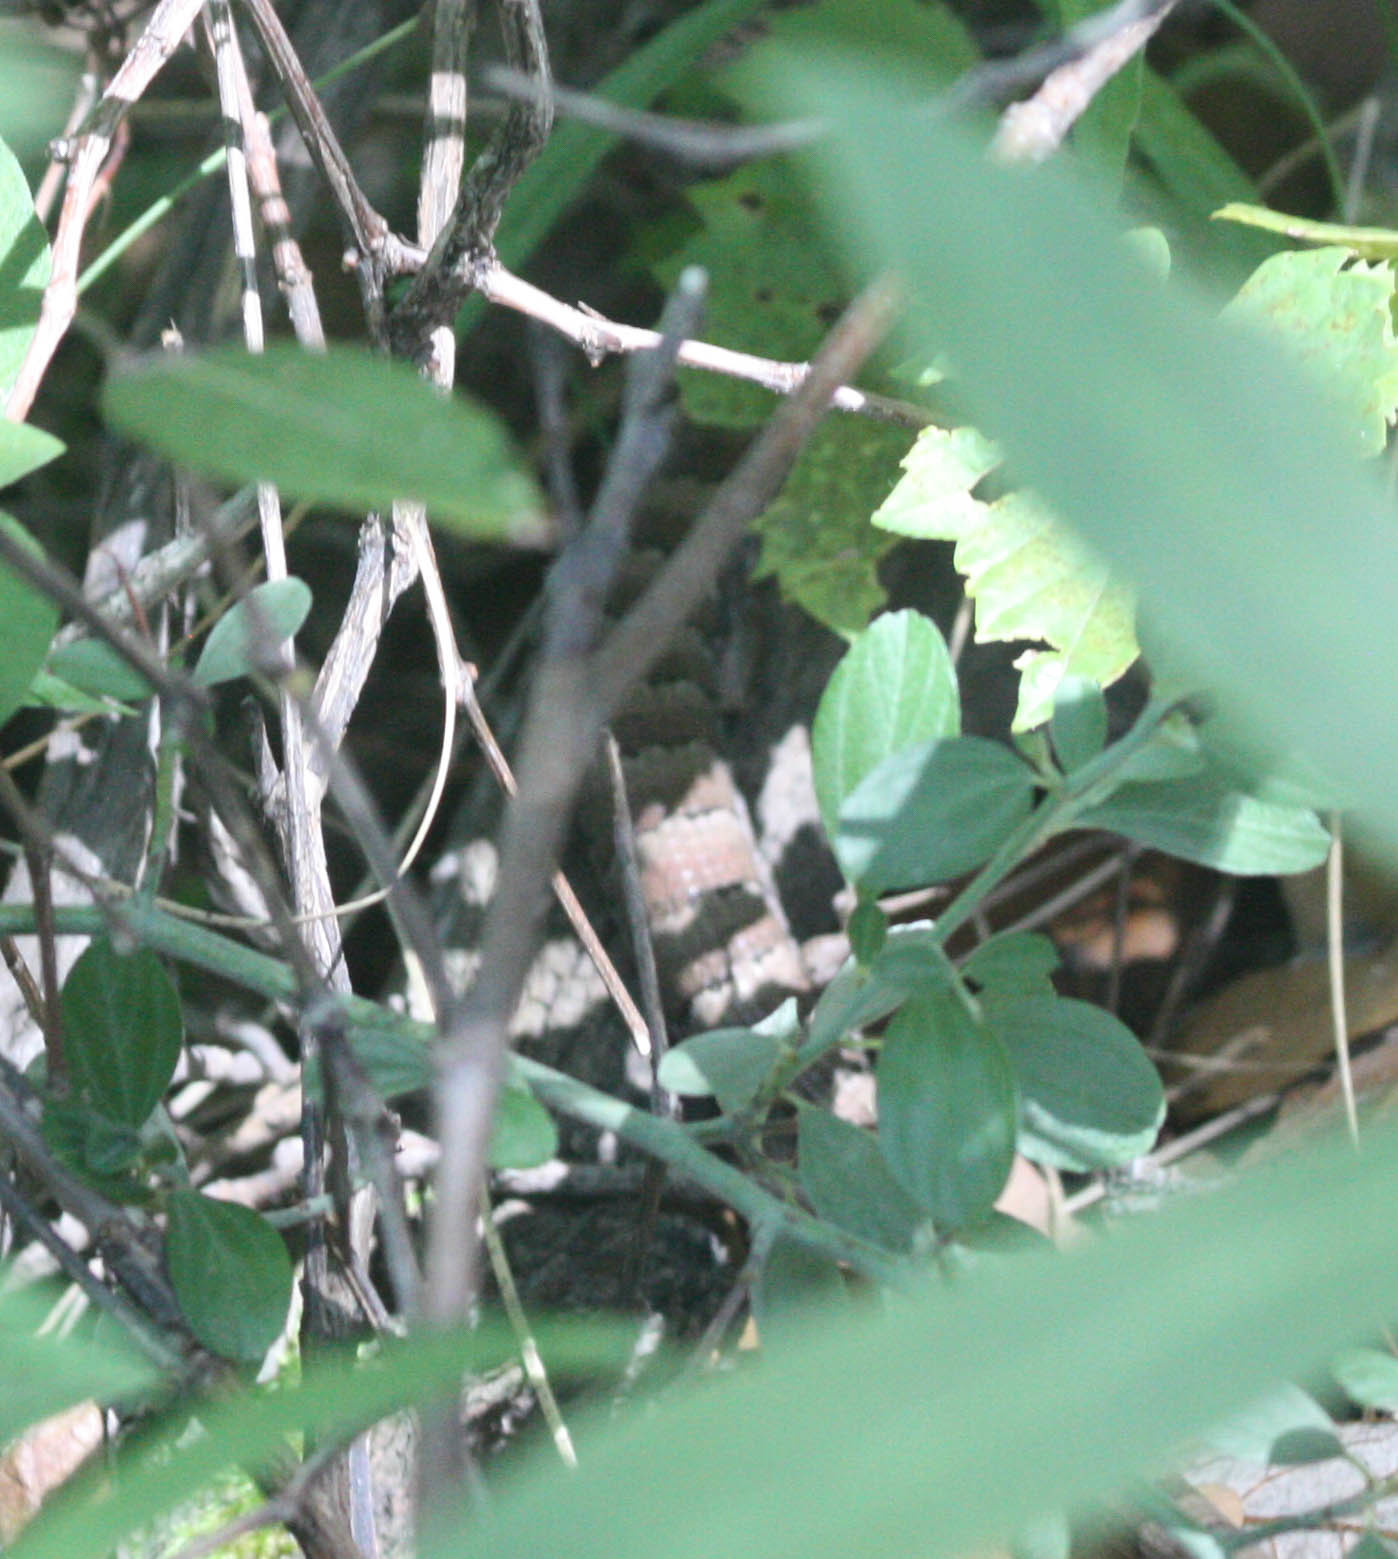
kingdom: Animalia
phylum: Chordata
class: Squamata
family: Anguidae
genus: Elgaria
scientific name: Elgaria kingii
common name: Madrean alligator lizard
